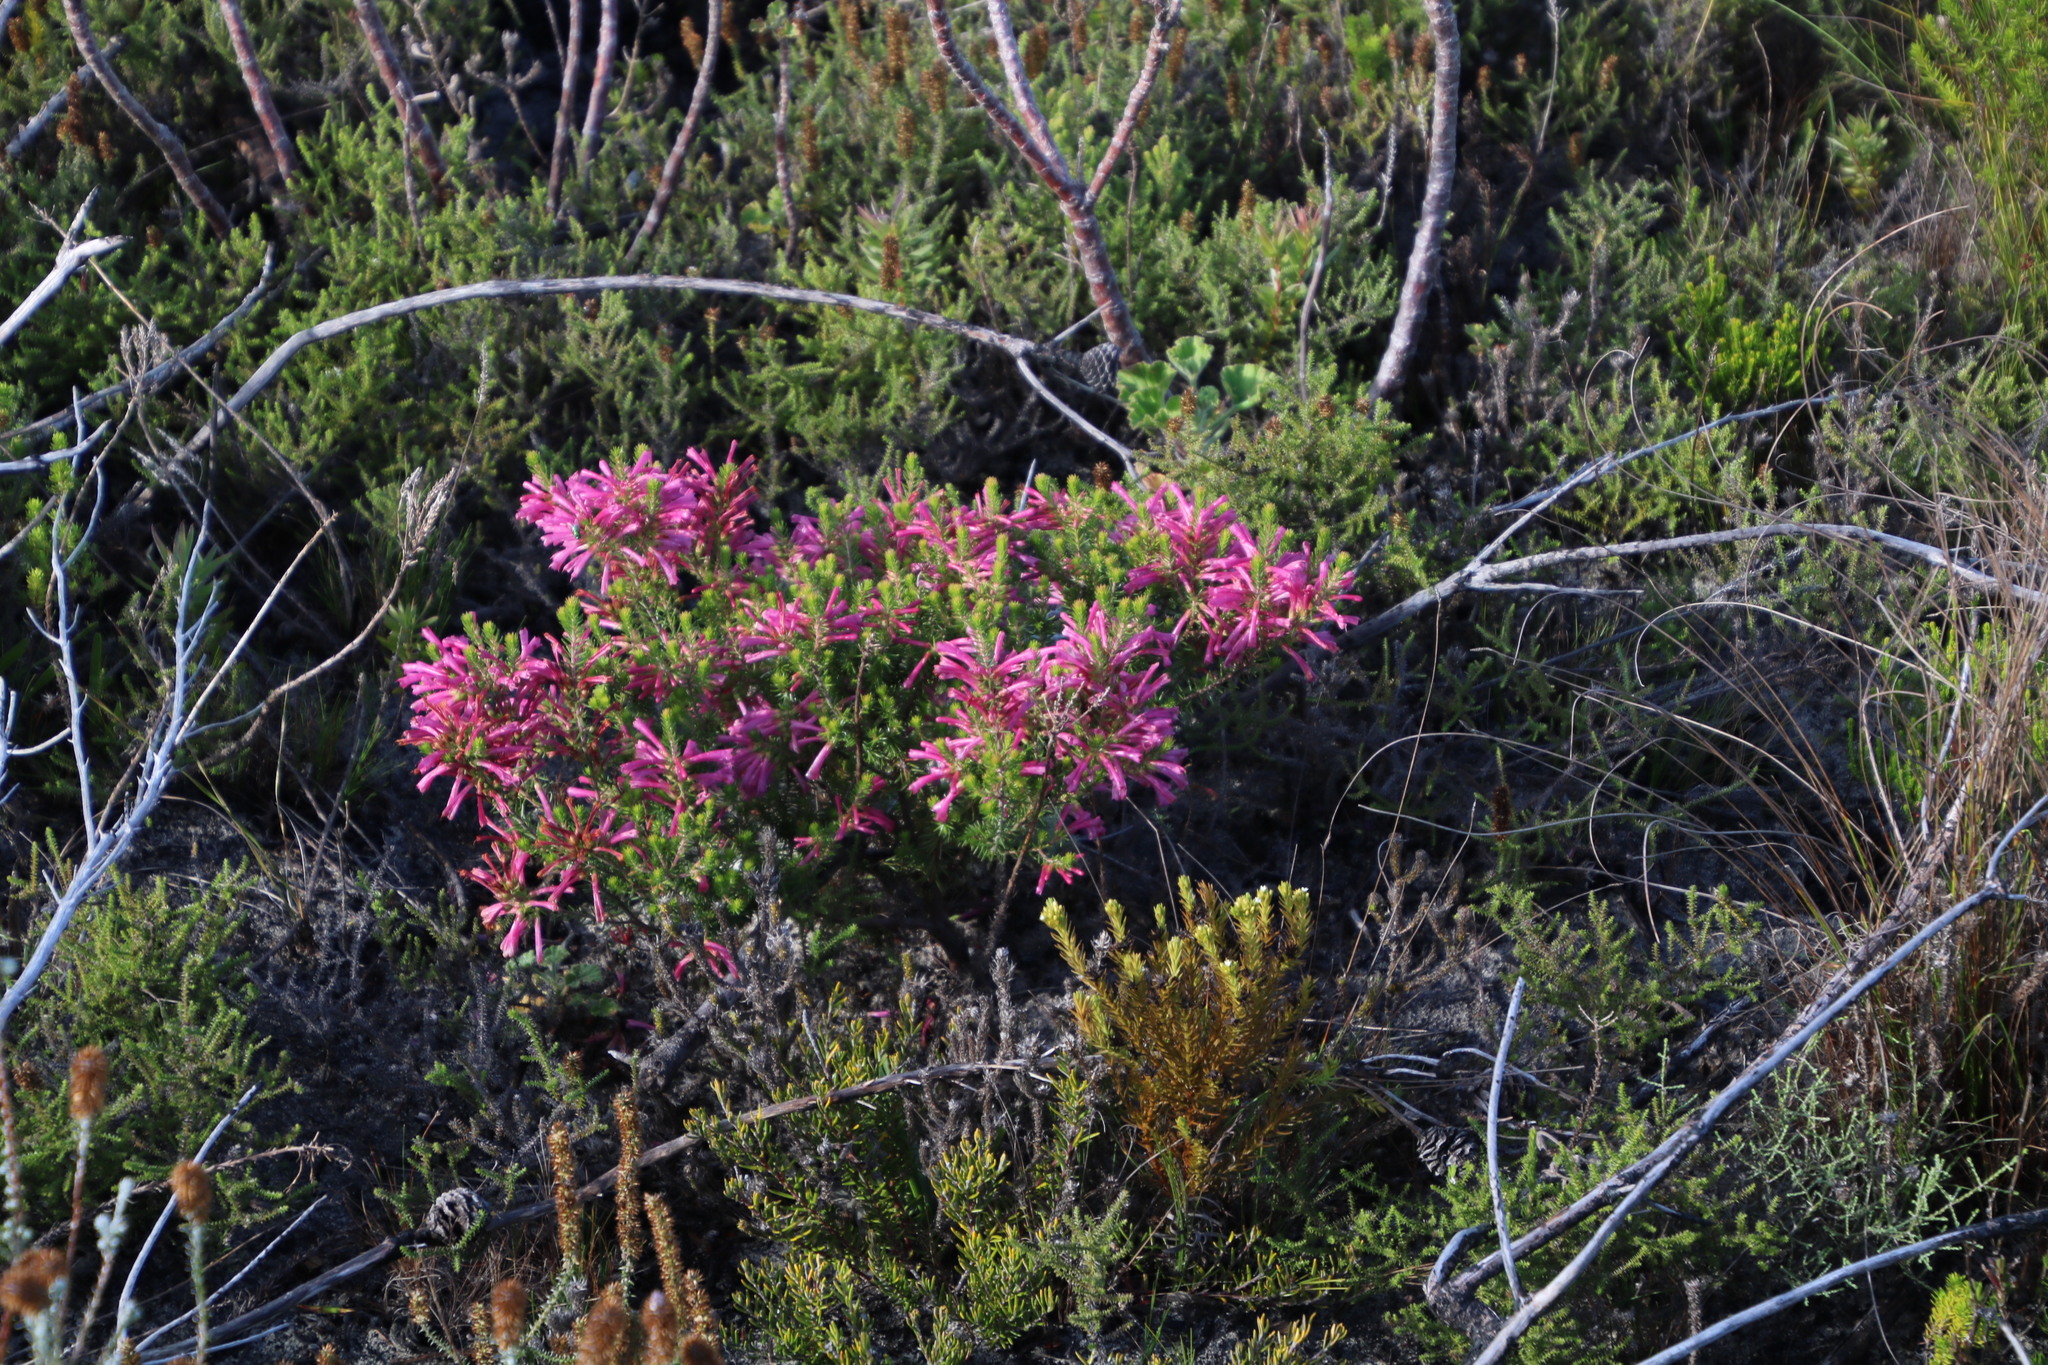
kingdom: Plantae
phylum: Tracheophyta
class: Magnoliopsida
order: Ericales
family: Ericaceae
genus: Erica
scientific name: Erica abietina
